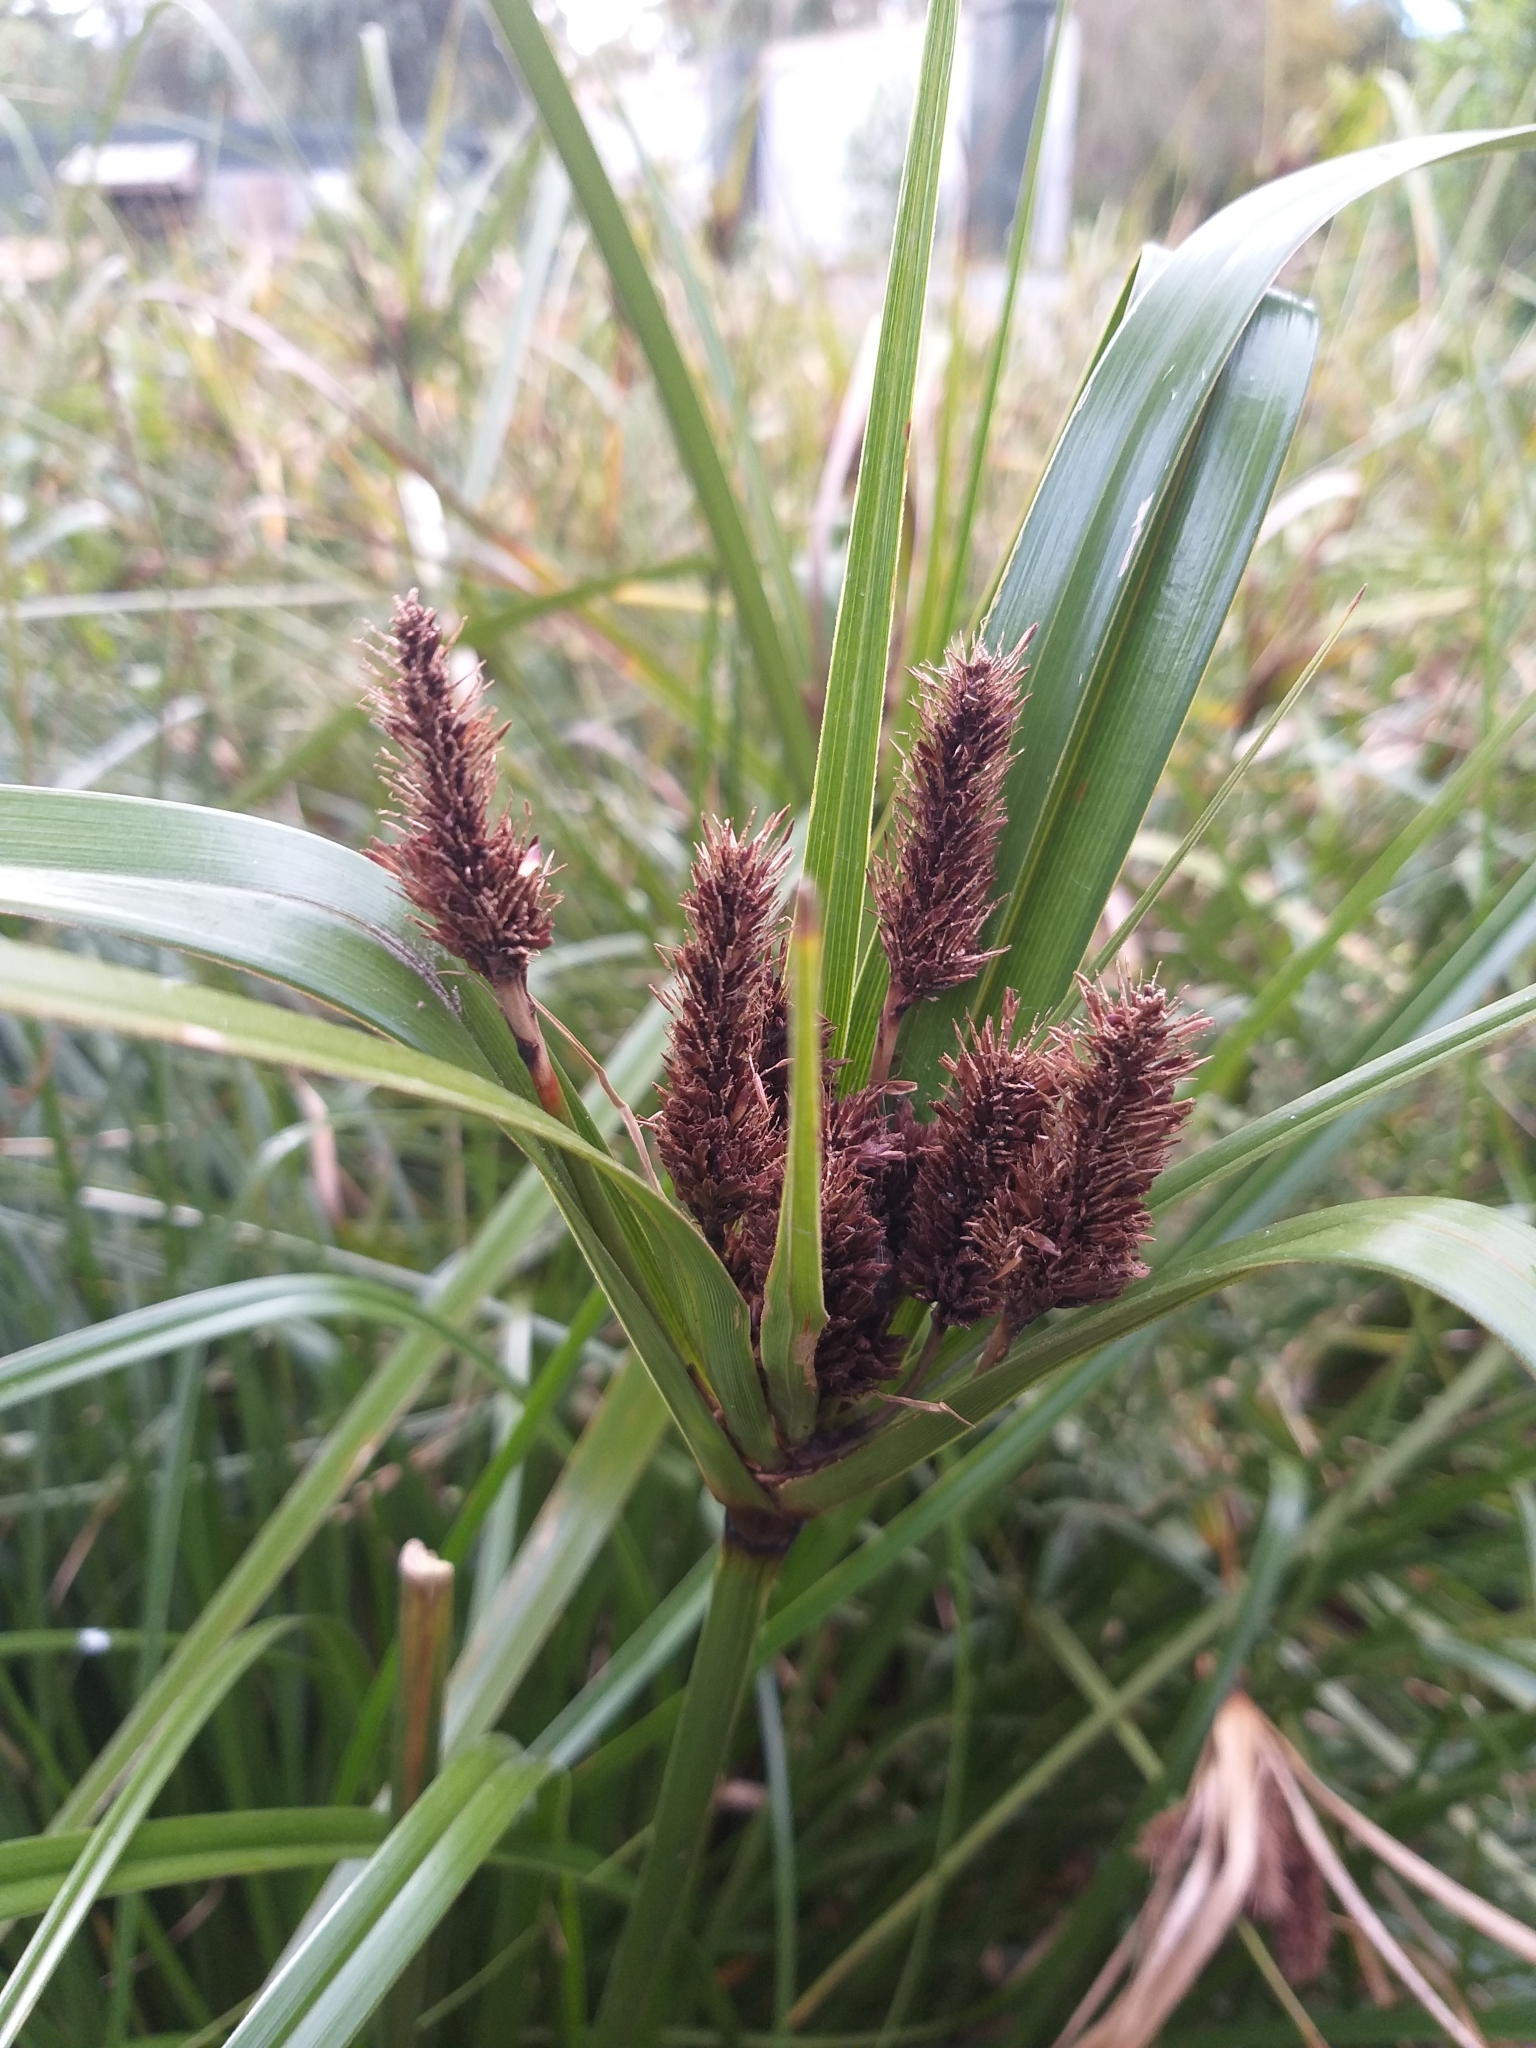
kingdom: Plantae
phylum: Tracheophyta
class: Liliopsida
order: Poales
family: Cyperaceae
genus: Cyperus
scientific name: Cyperus ustulatus
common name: Giant umbrella-sedge
